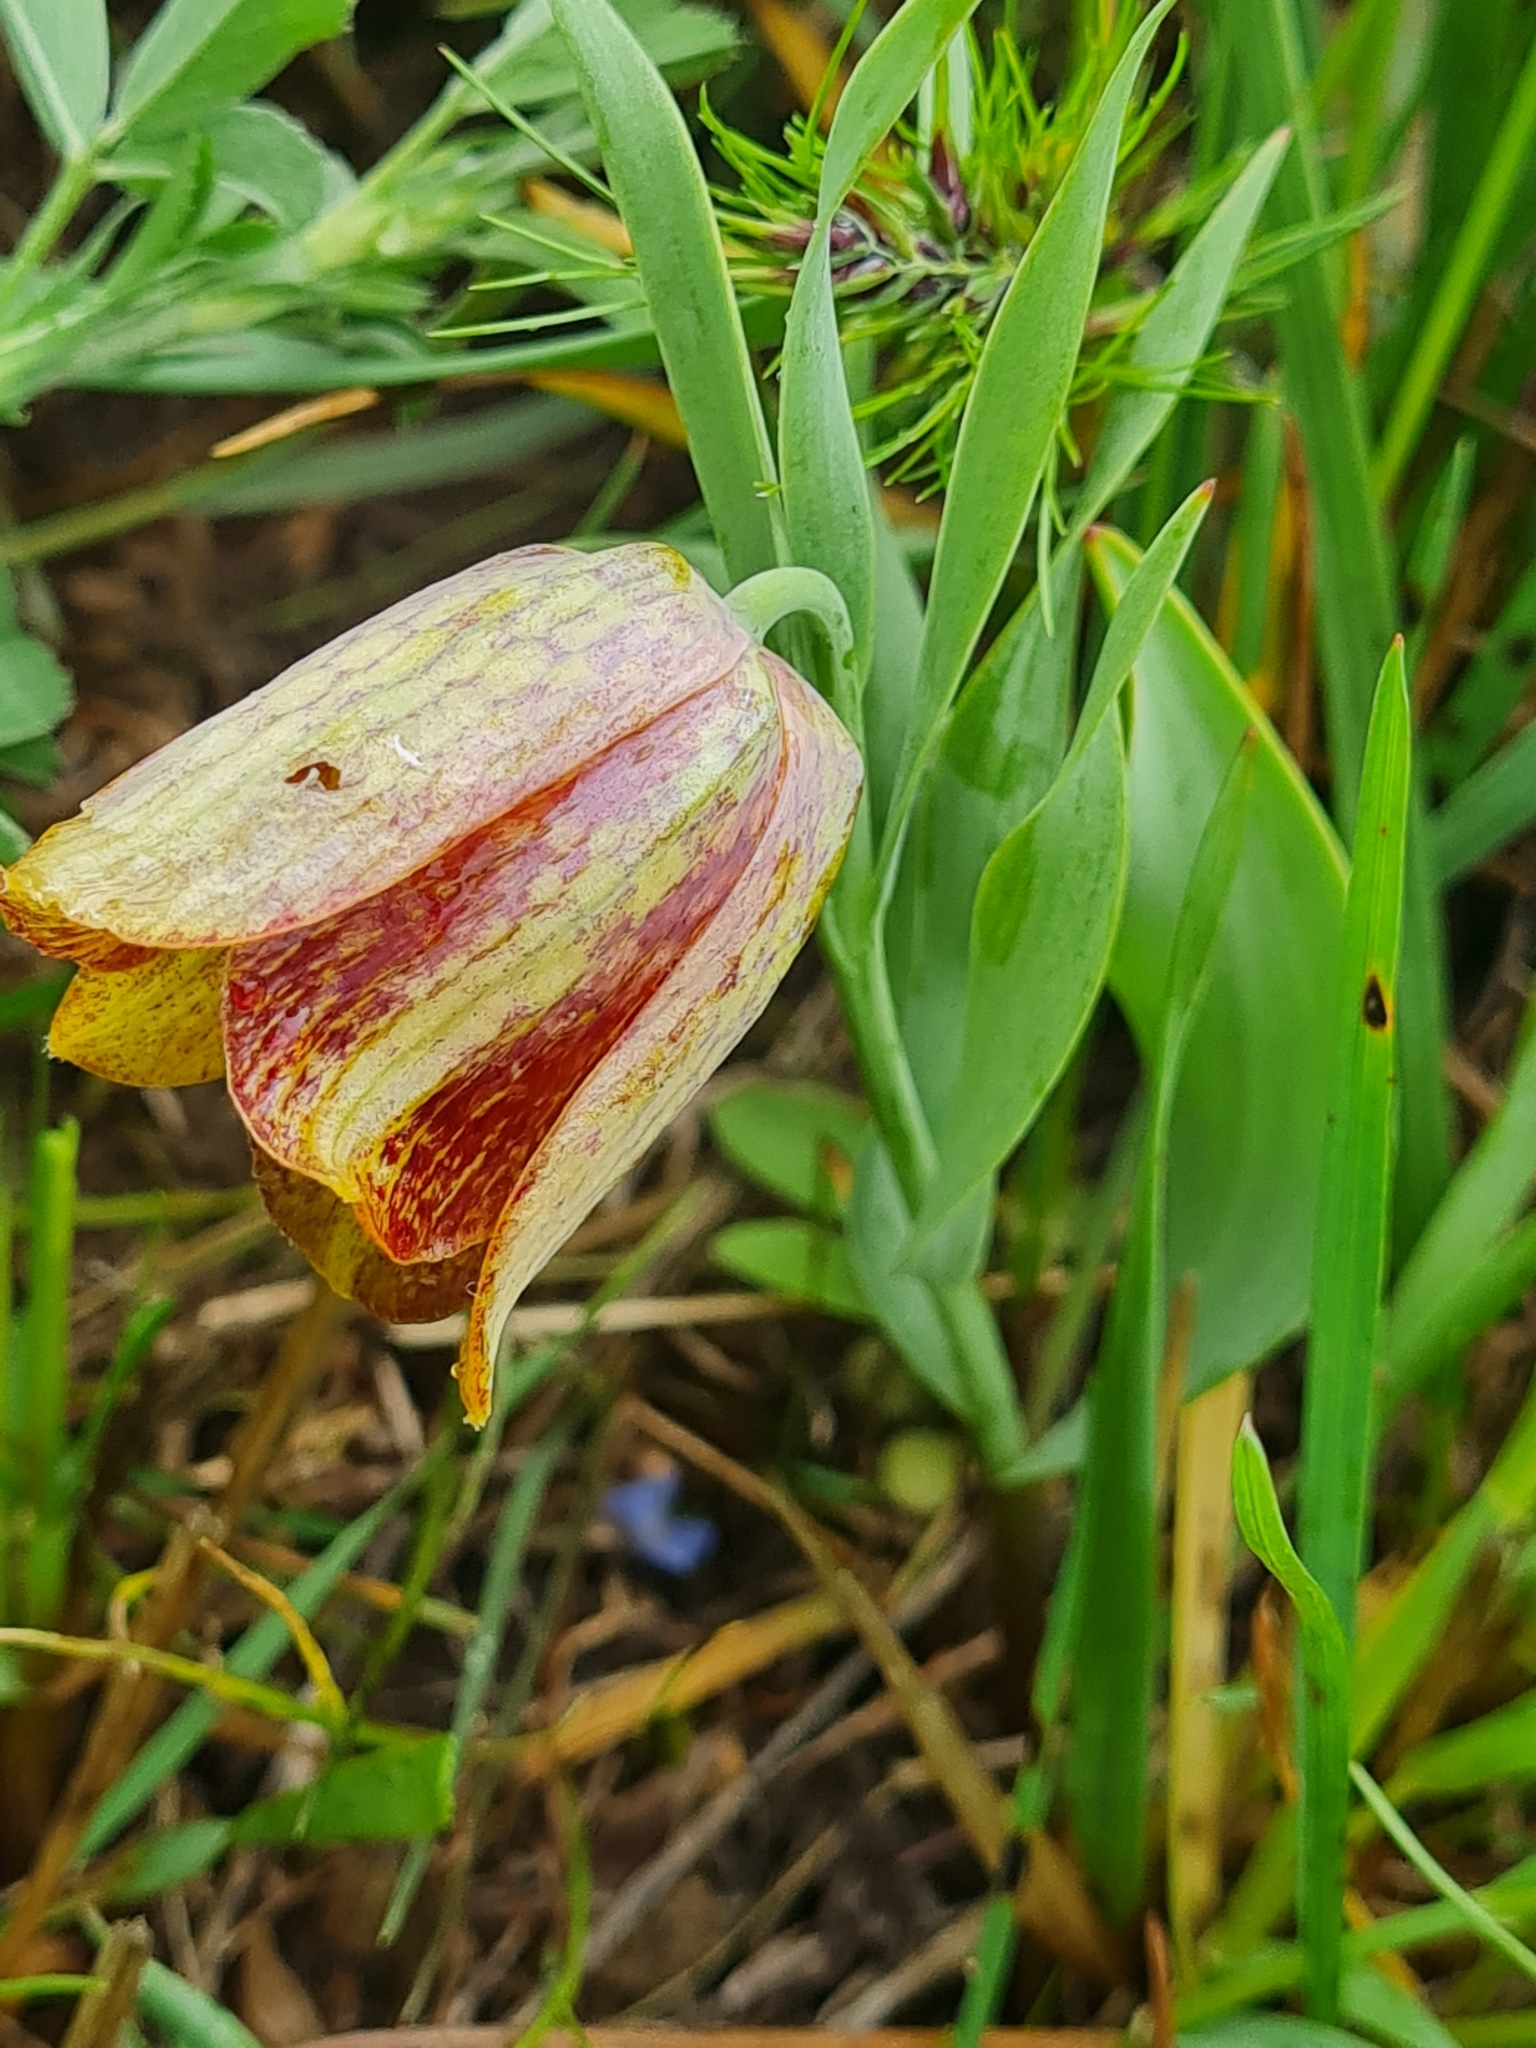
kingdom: Plantae
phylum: Tracheophyta
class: Liliopsida
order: Liliales
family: Liliaceae
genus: Fritillaria
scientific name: Fritillaria kurdica
